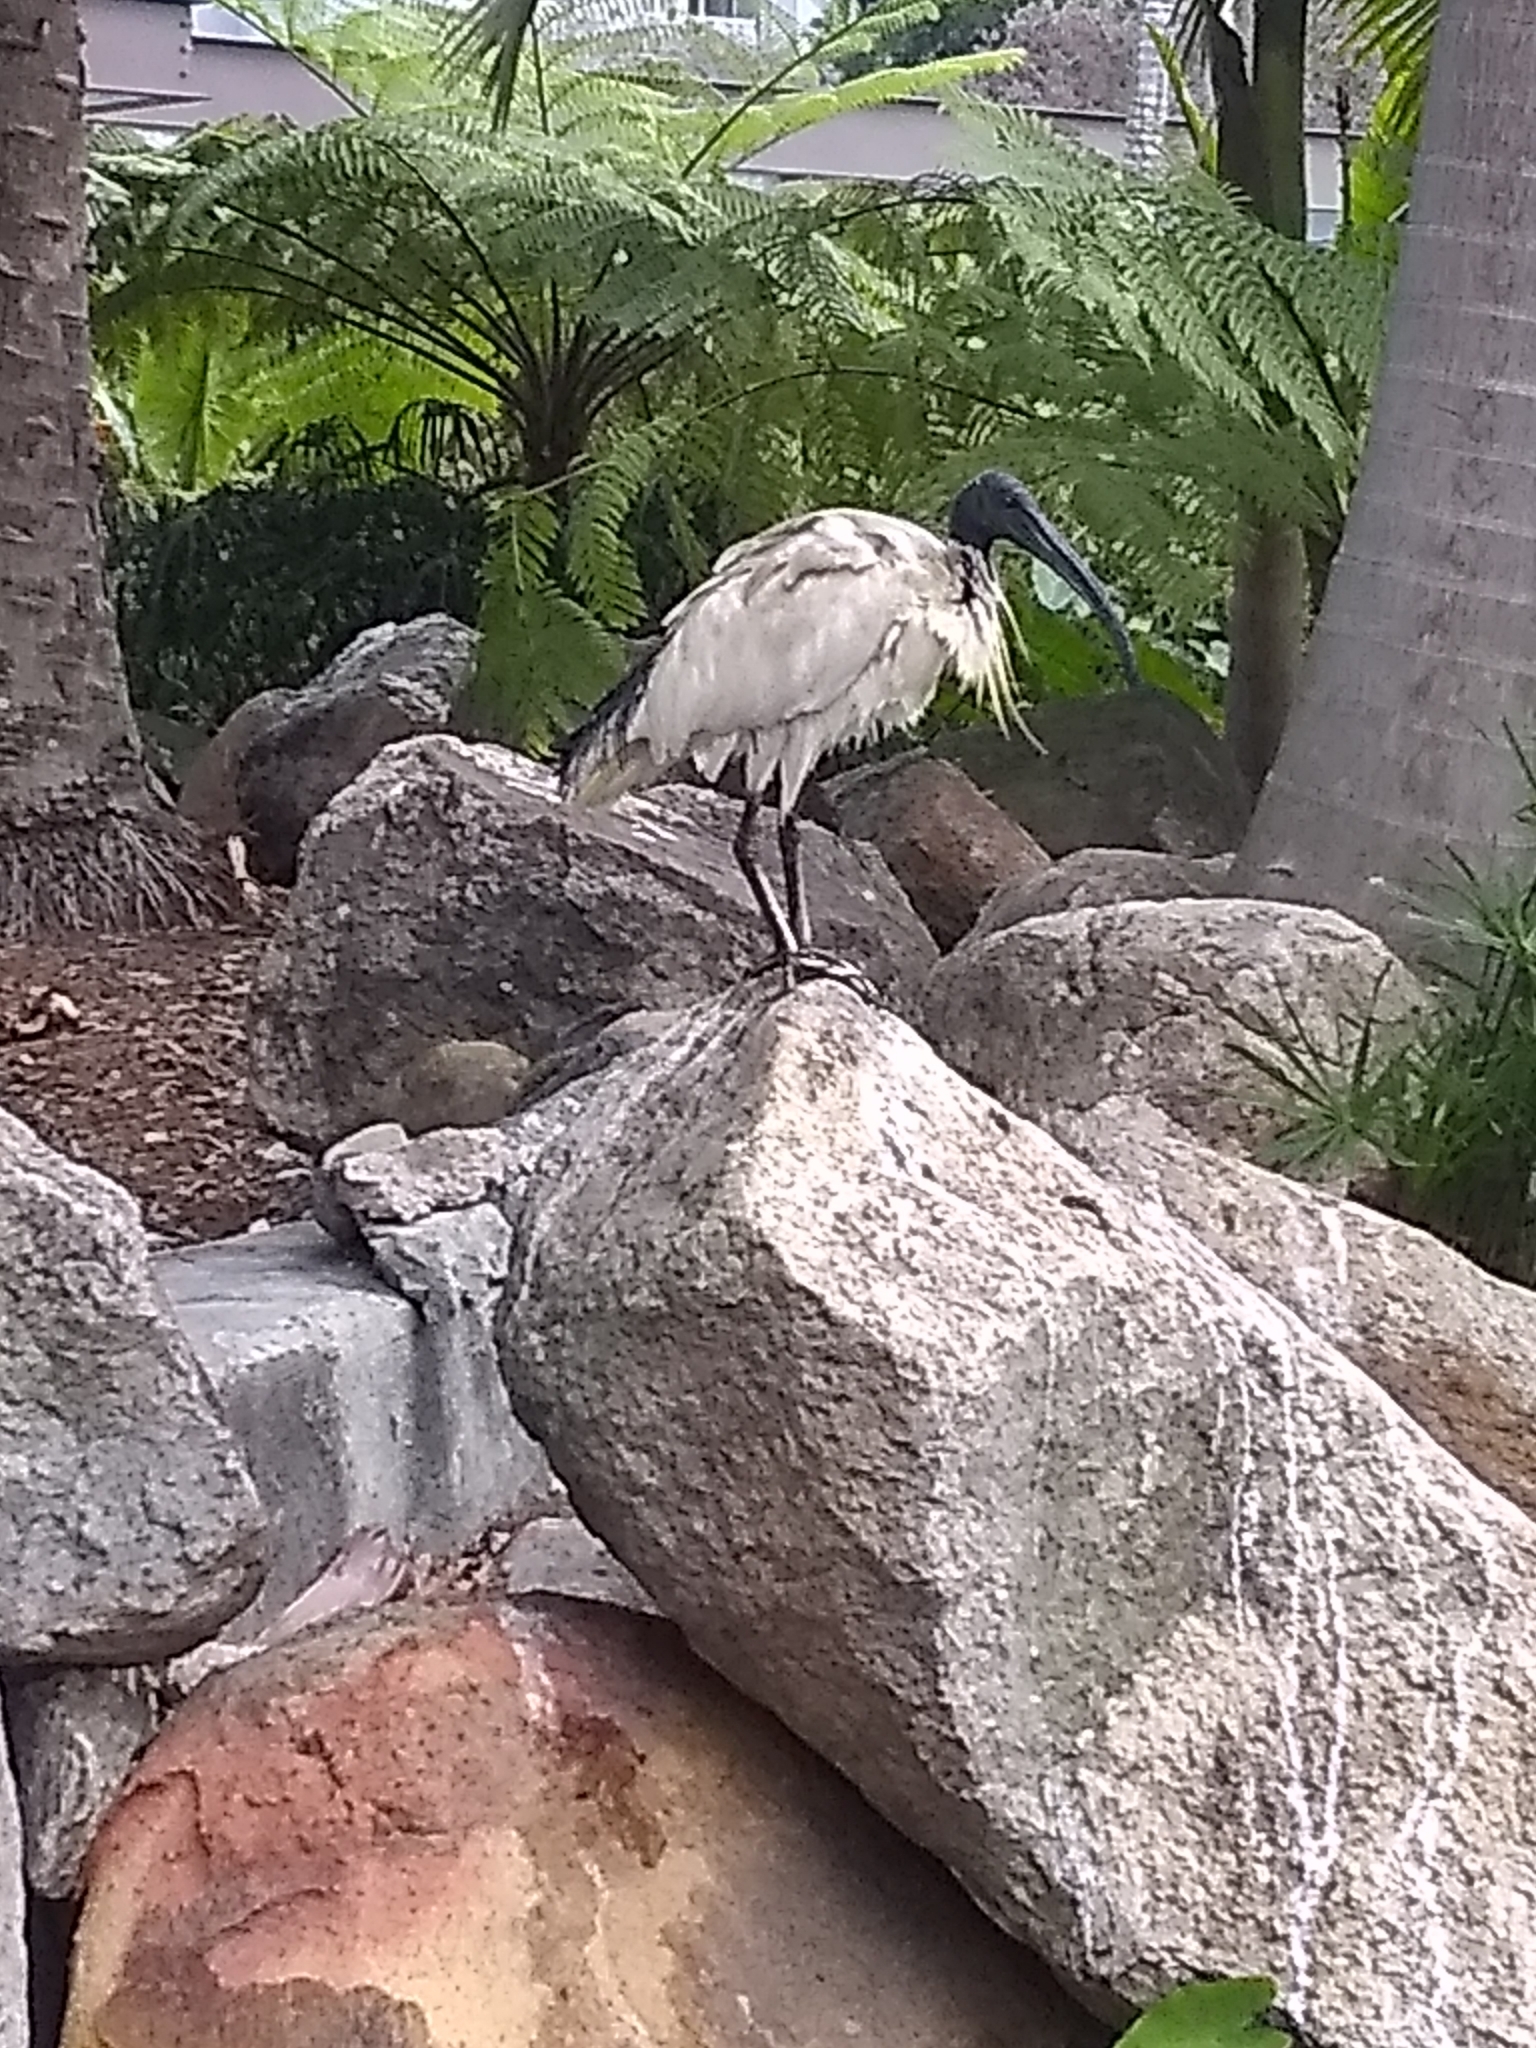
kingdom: Animalia
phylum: Chordata
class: Aves
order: Pelecaniformes
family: Threskiornithidae
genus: Threskiornis
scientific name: Threskiornis molucca
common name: Australian white ibis
